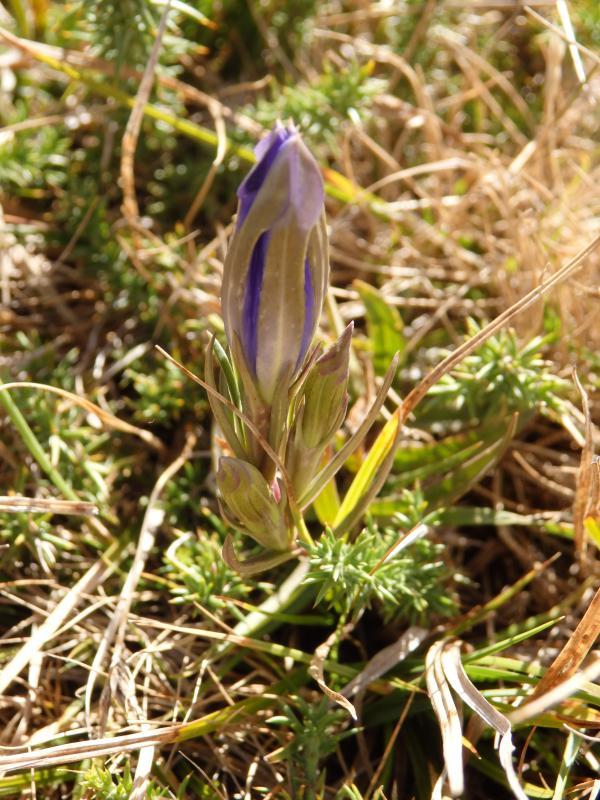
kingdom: Plantae
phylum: Tracheophyta
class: Magnoliopsida
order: Gentianales
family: Gentianaceae
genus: Gentiana
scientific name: Gentiana pneumonanthe
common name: Marsh gentian
